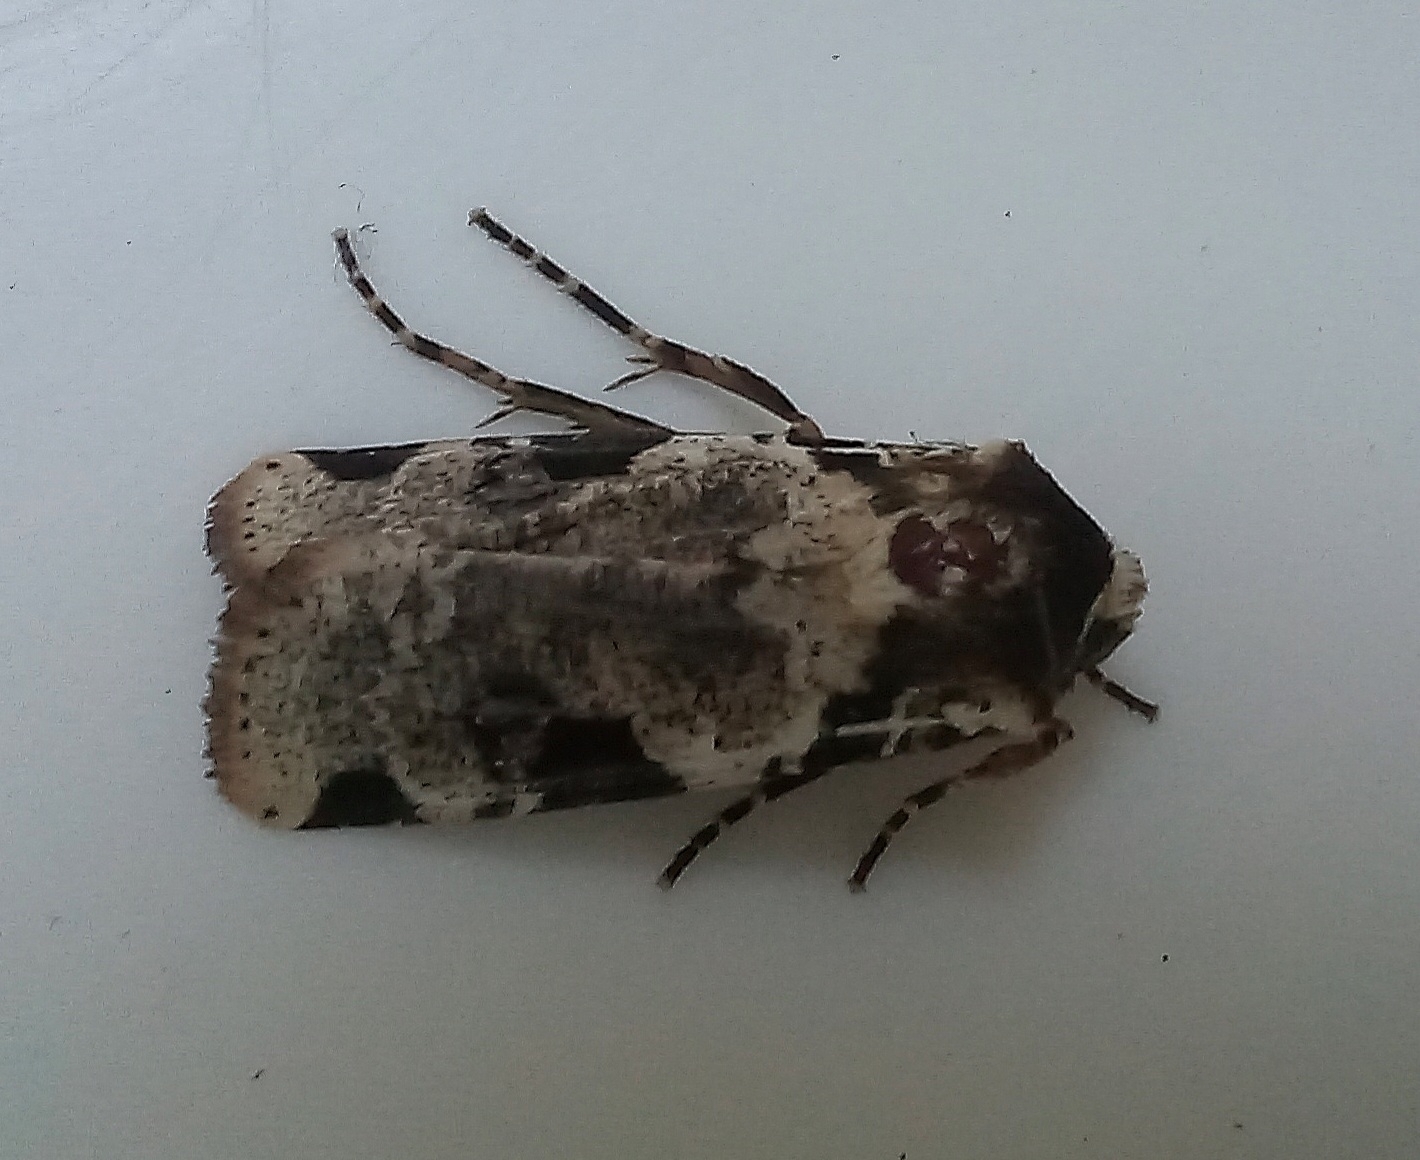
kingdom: Animalia
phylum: Arthropoda
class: Insecta
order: Lepidoptera
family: Noctuidae
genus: Mentaxya
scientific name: Mentaxya albifrons
